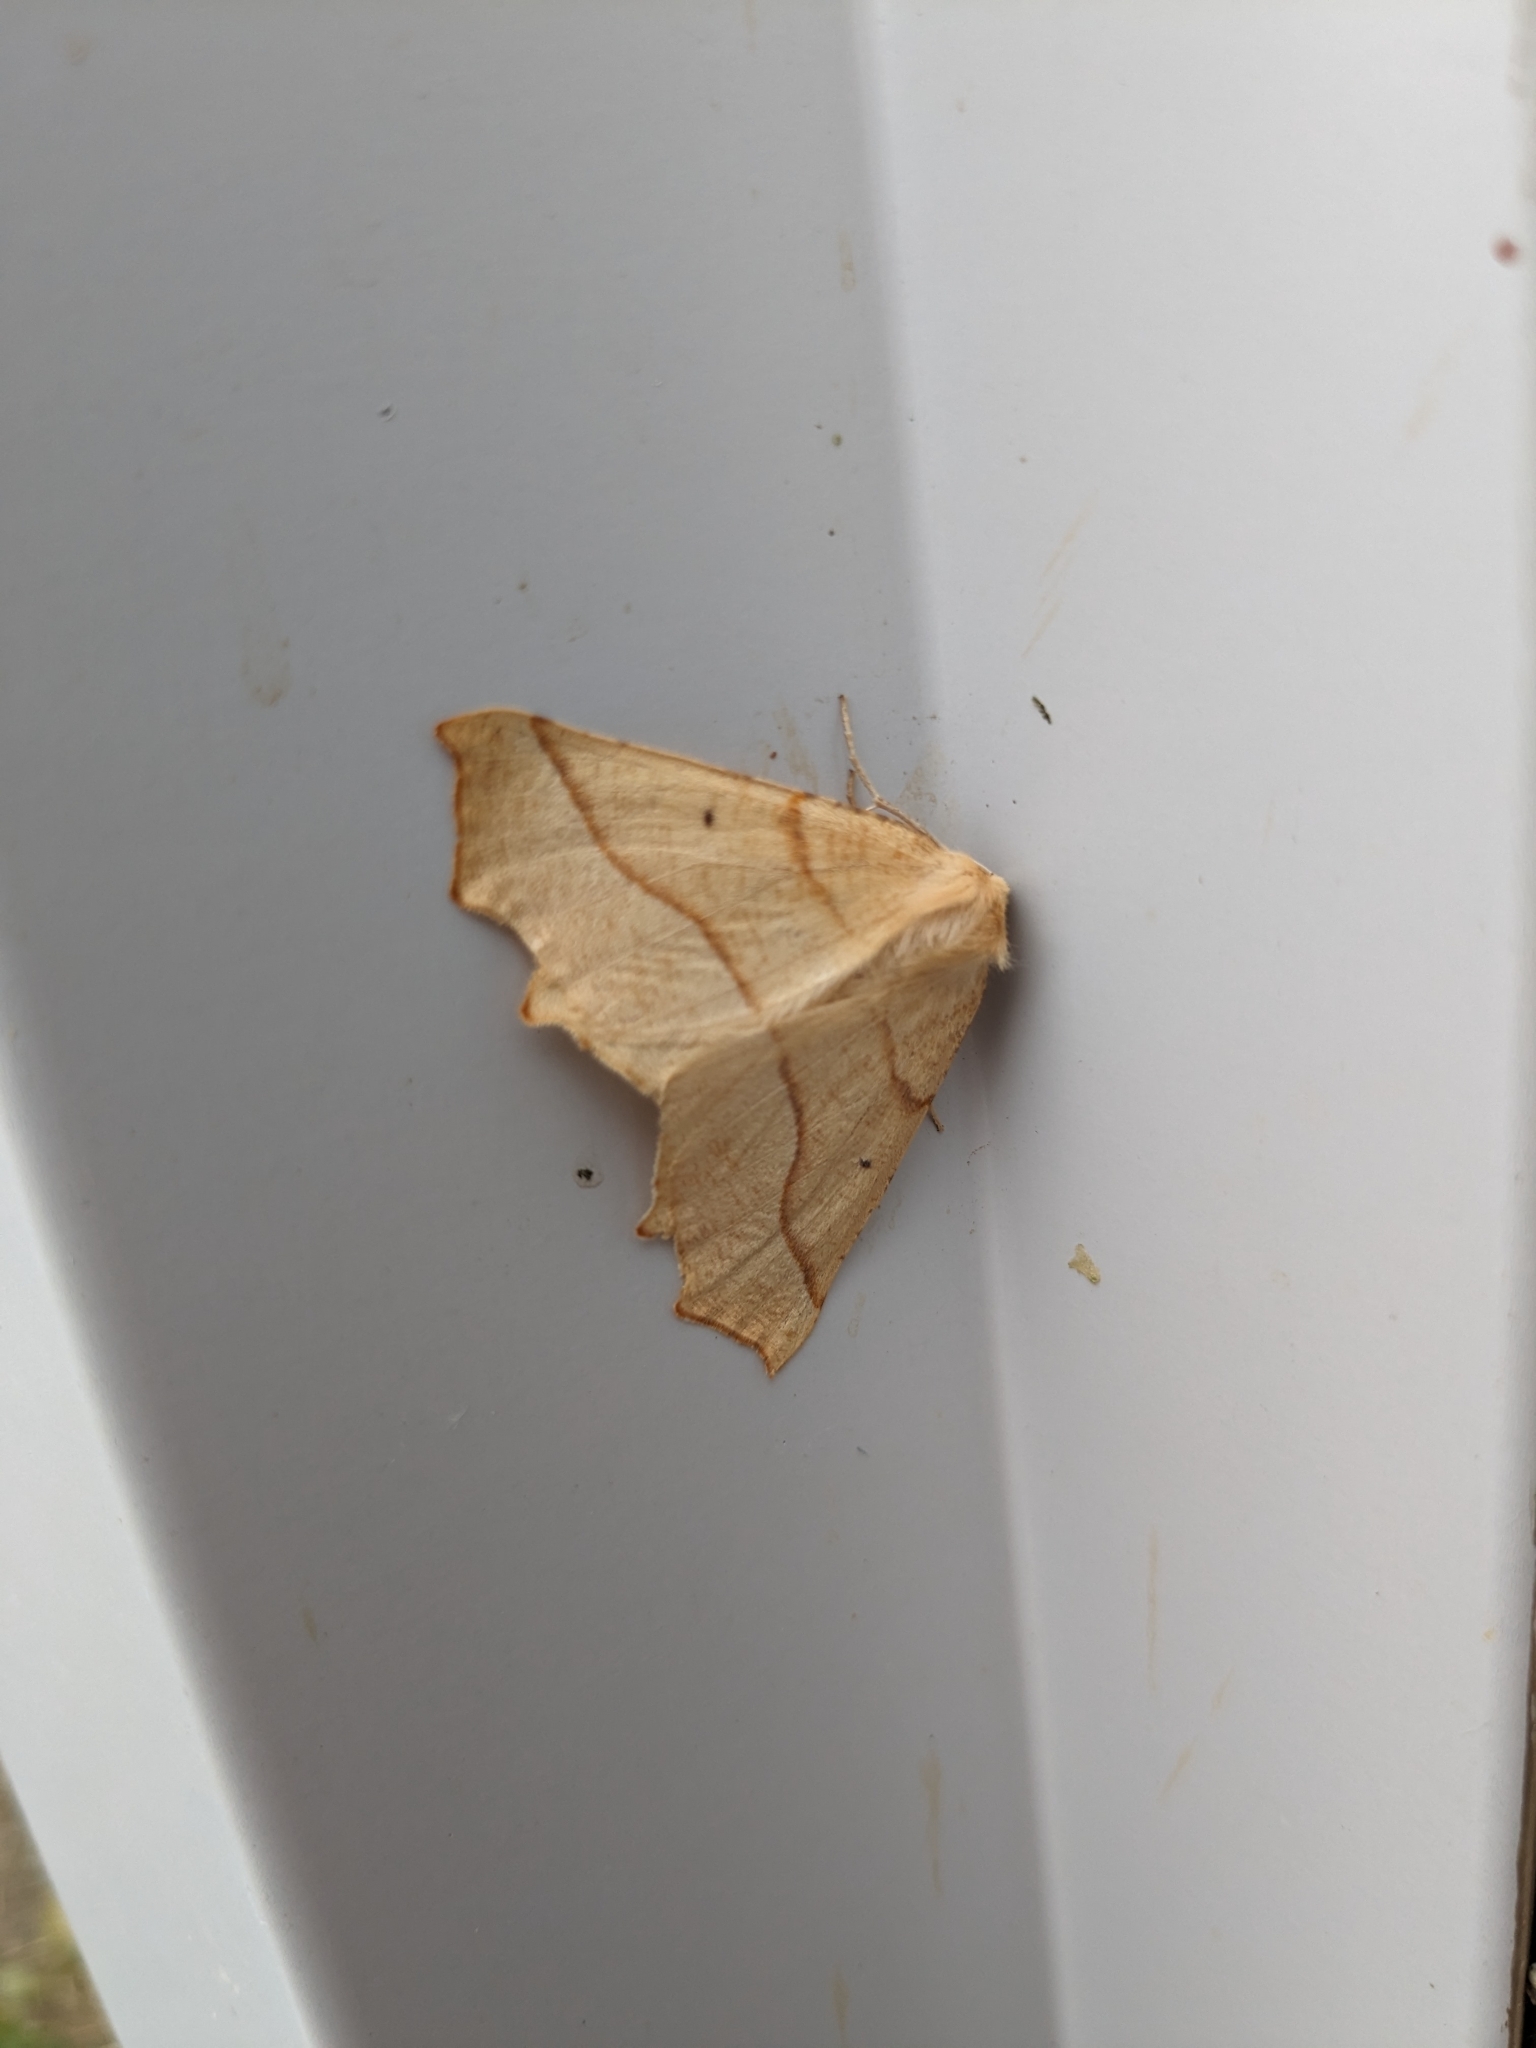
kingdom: Animalia
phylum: Arthropoda
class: Insecta
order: Lepidoptera
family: Geometridae
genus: Synaxis
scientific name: Synaxis jubararia
